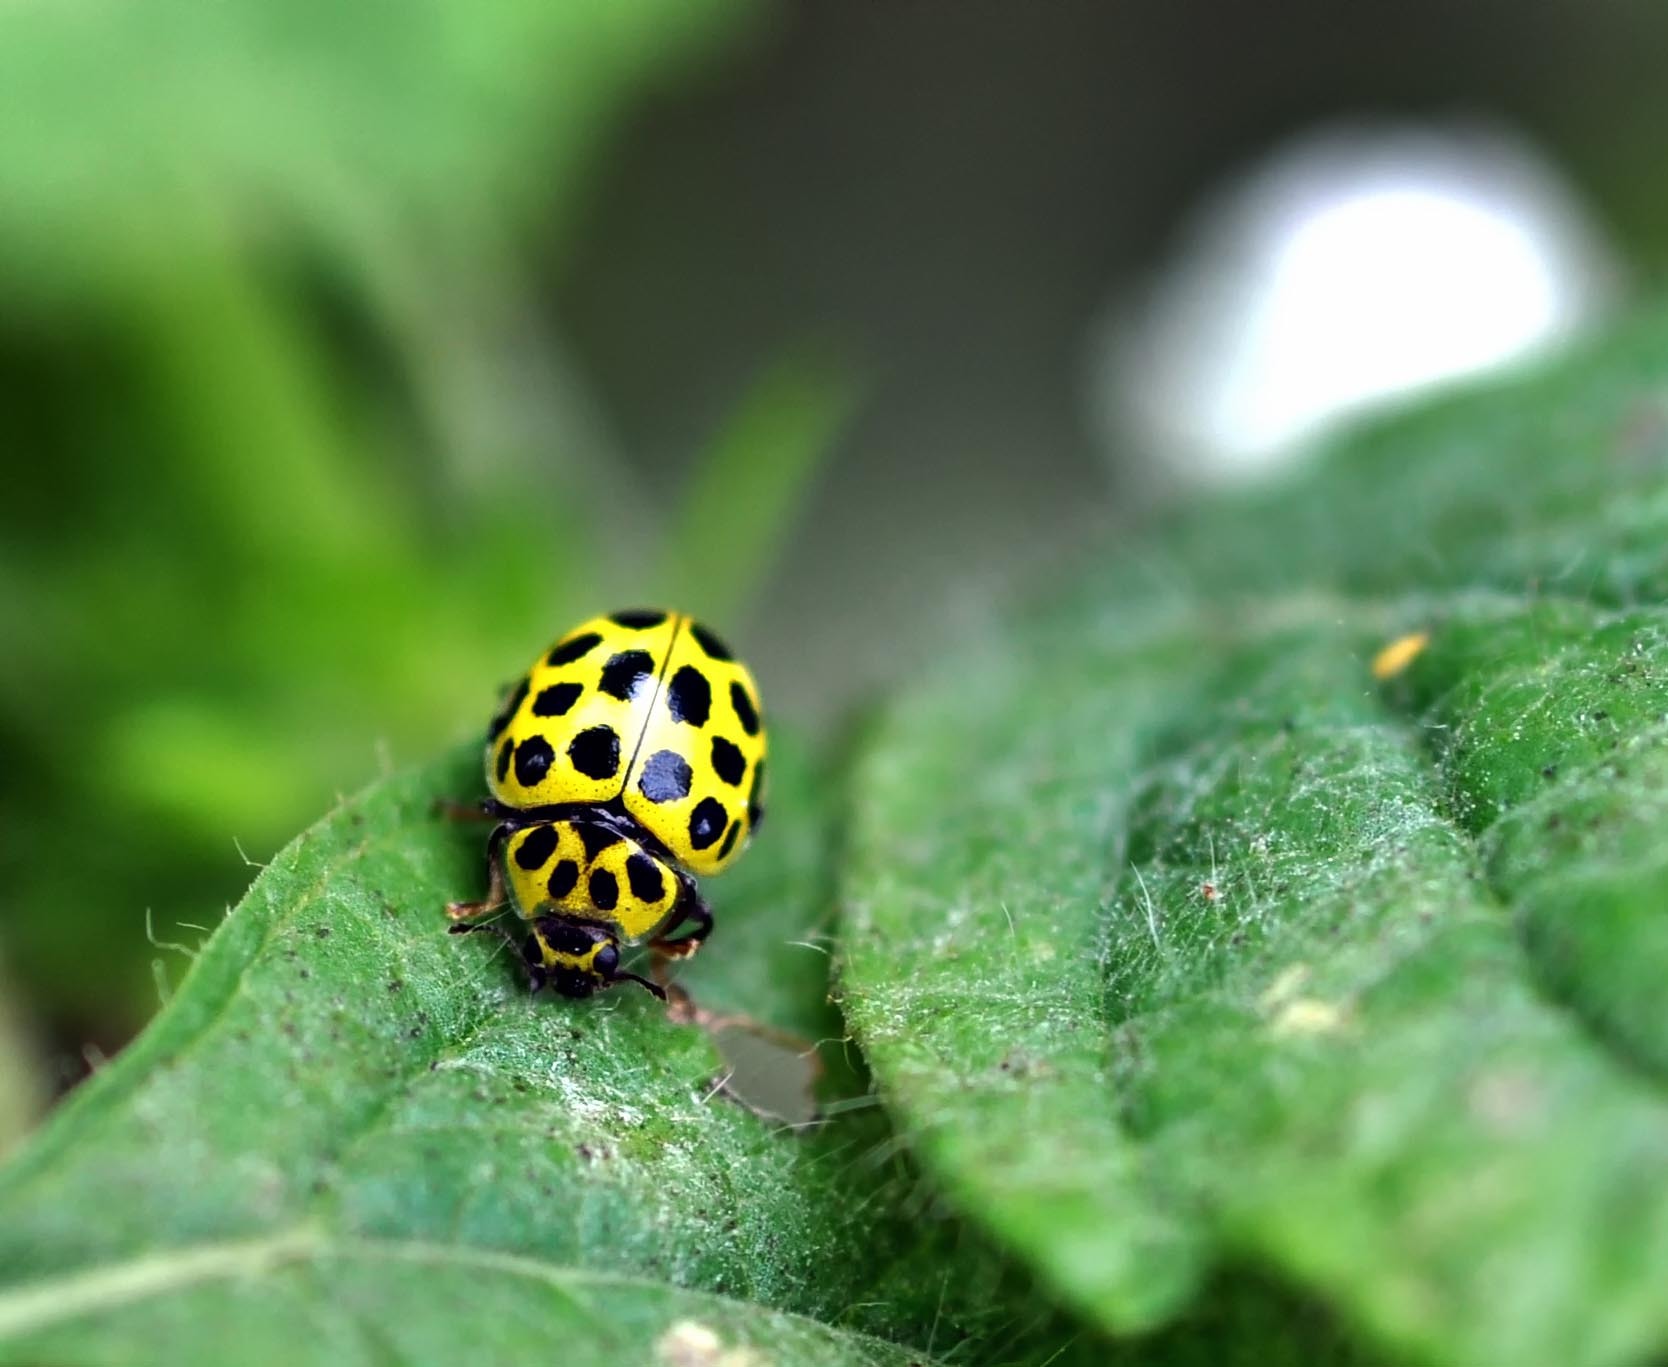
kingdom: Animalia
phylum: Arthropoda
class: Insecta
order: Coleoptera
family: Coccinellidae
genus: Psyllobora
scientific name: Psyllobora vigintiduopunctata
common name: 22-spot ladybird
